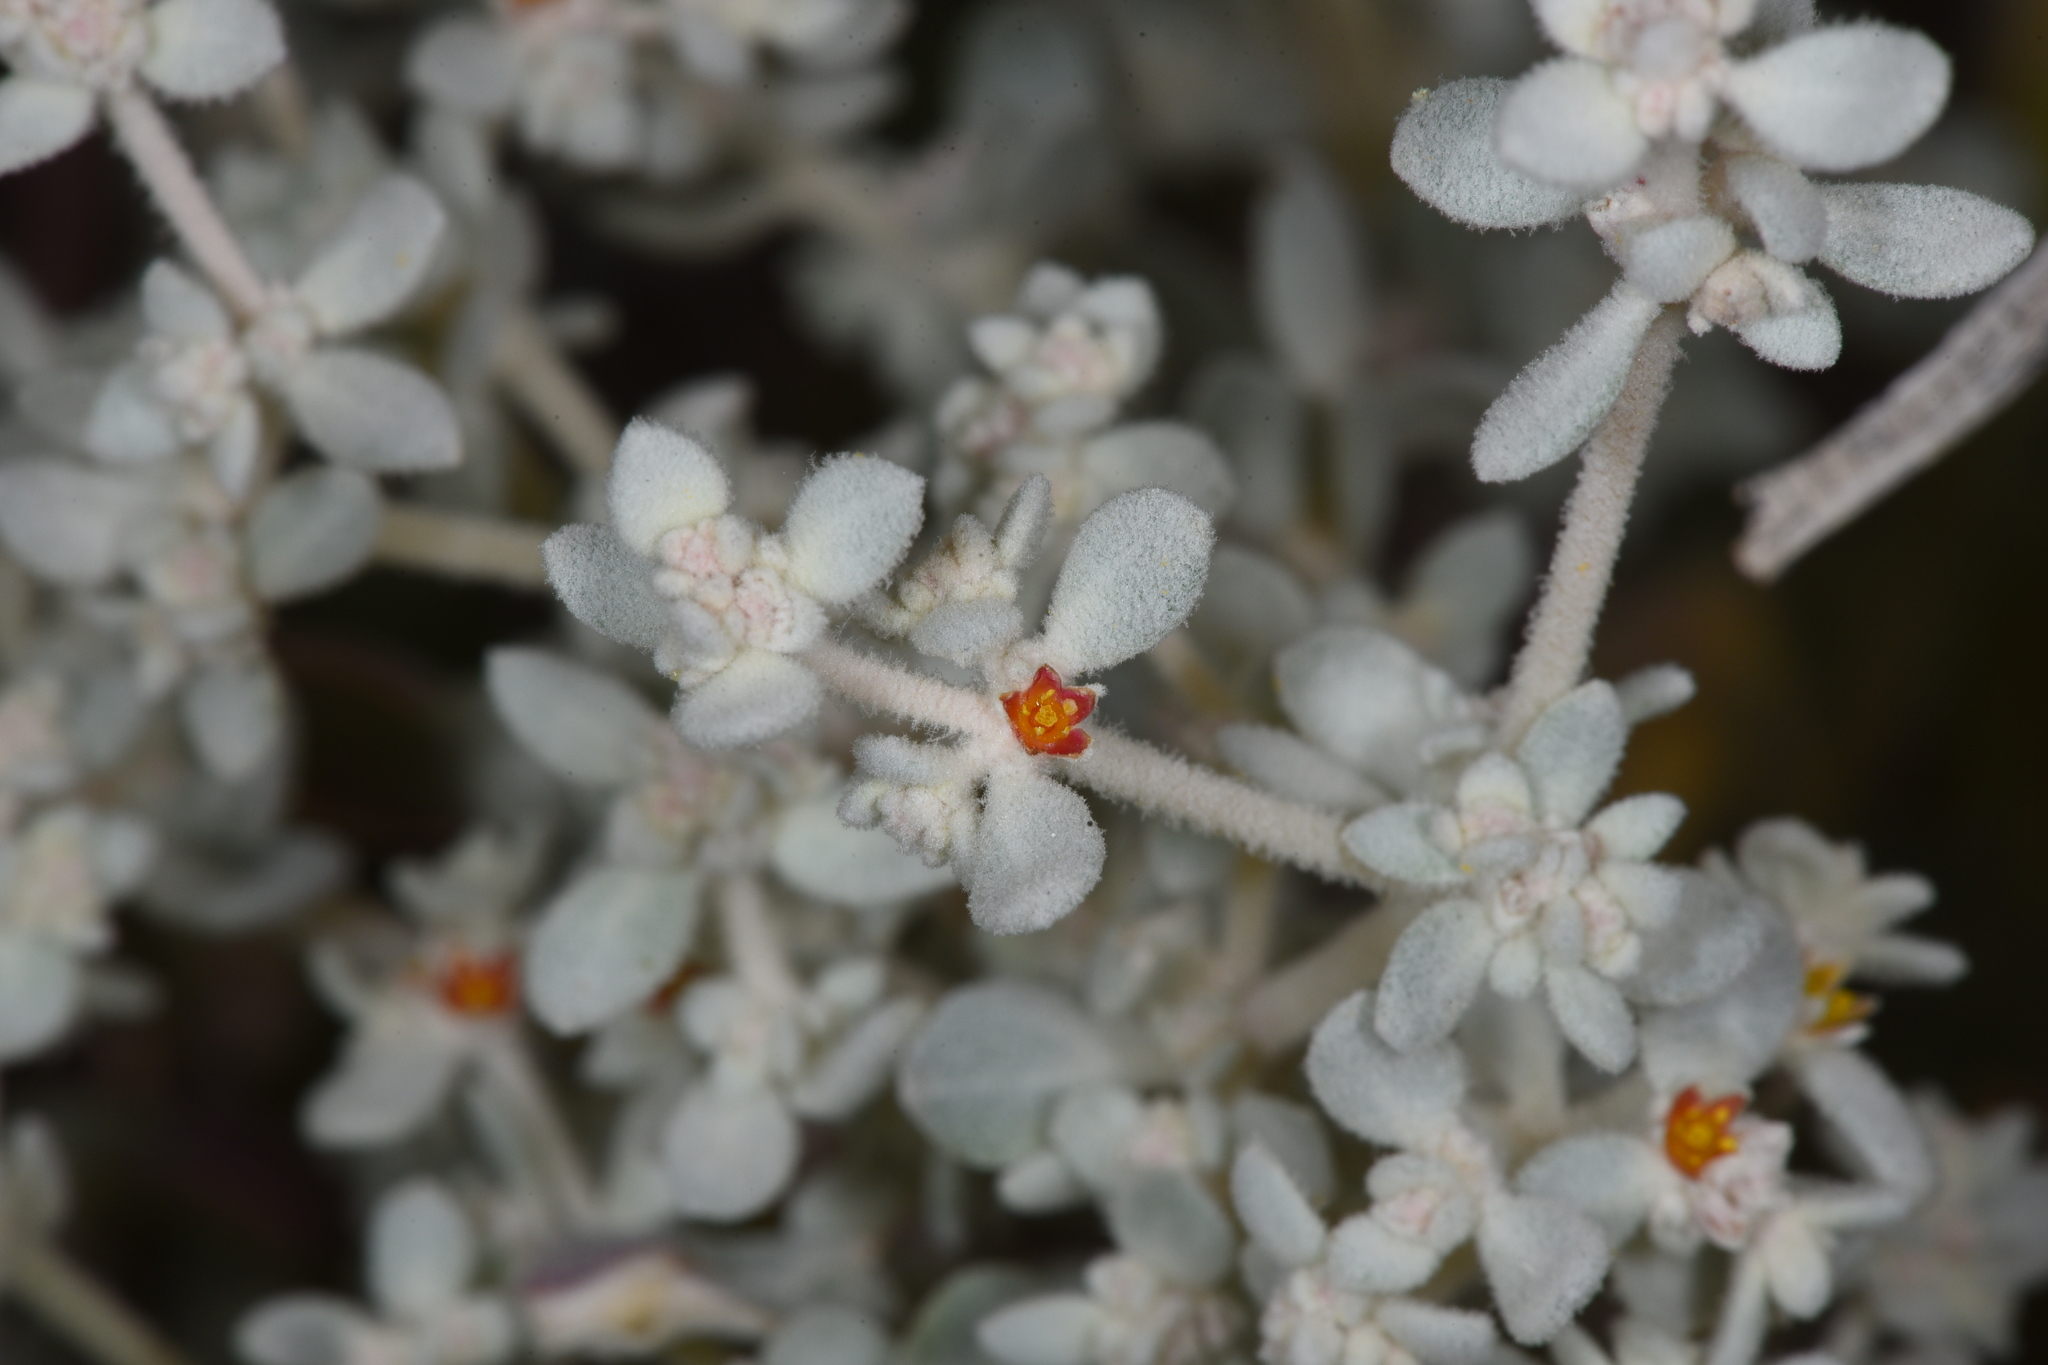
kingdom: Plantae
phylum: Tracheophyta
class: Magnoliopsida
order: Caryophyllales
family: Amaranthaceae
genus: Tidestromia
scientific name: Tidestromia suffruticosa
